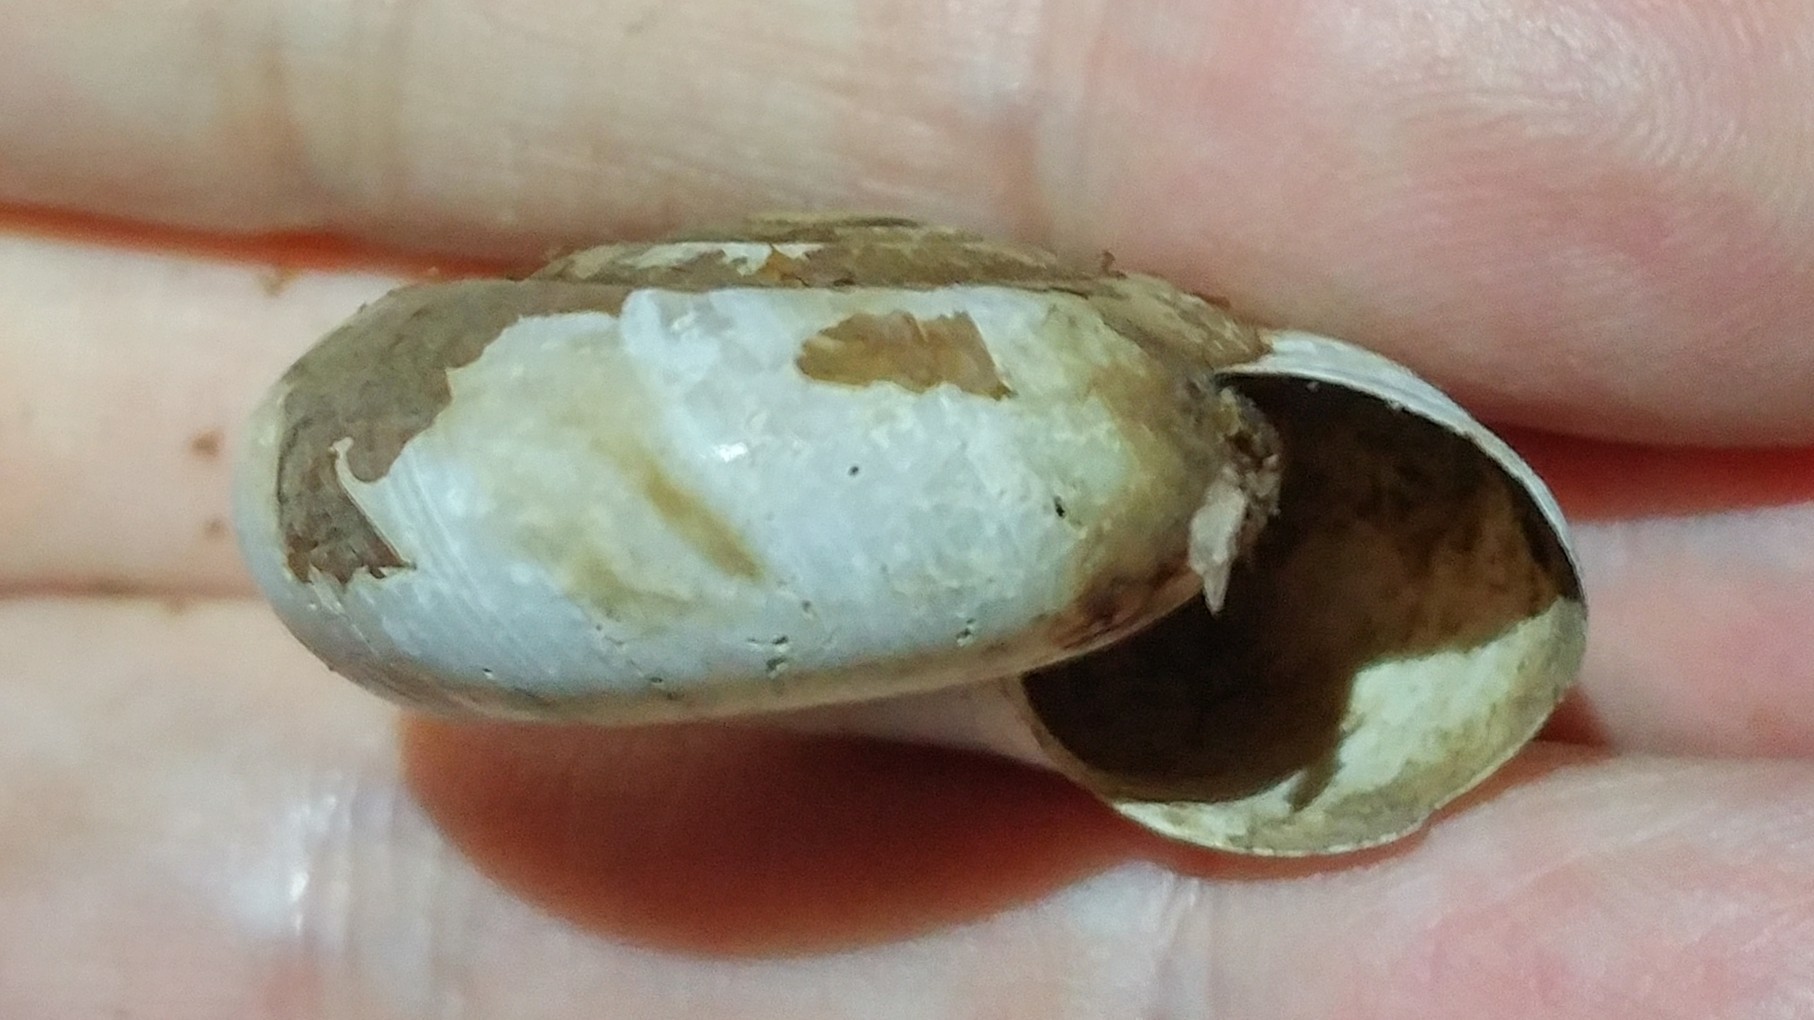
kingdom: Animalia
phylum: Mollusca
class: Gastropoda
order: Stylommatophora
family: Megomphicidae
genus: Glyptostoma
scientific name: Glyptostoma newberryanum
